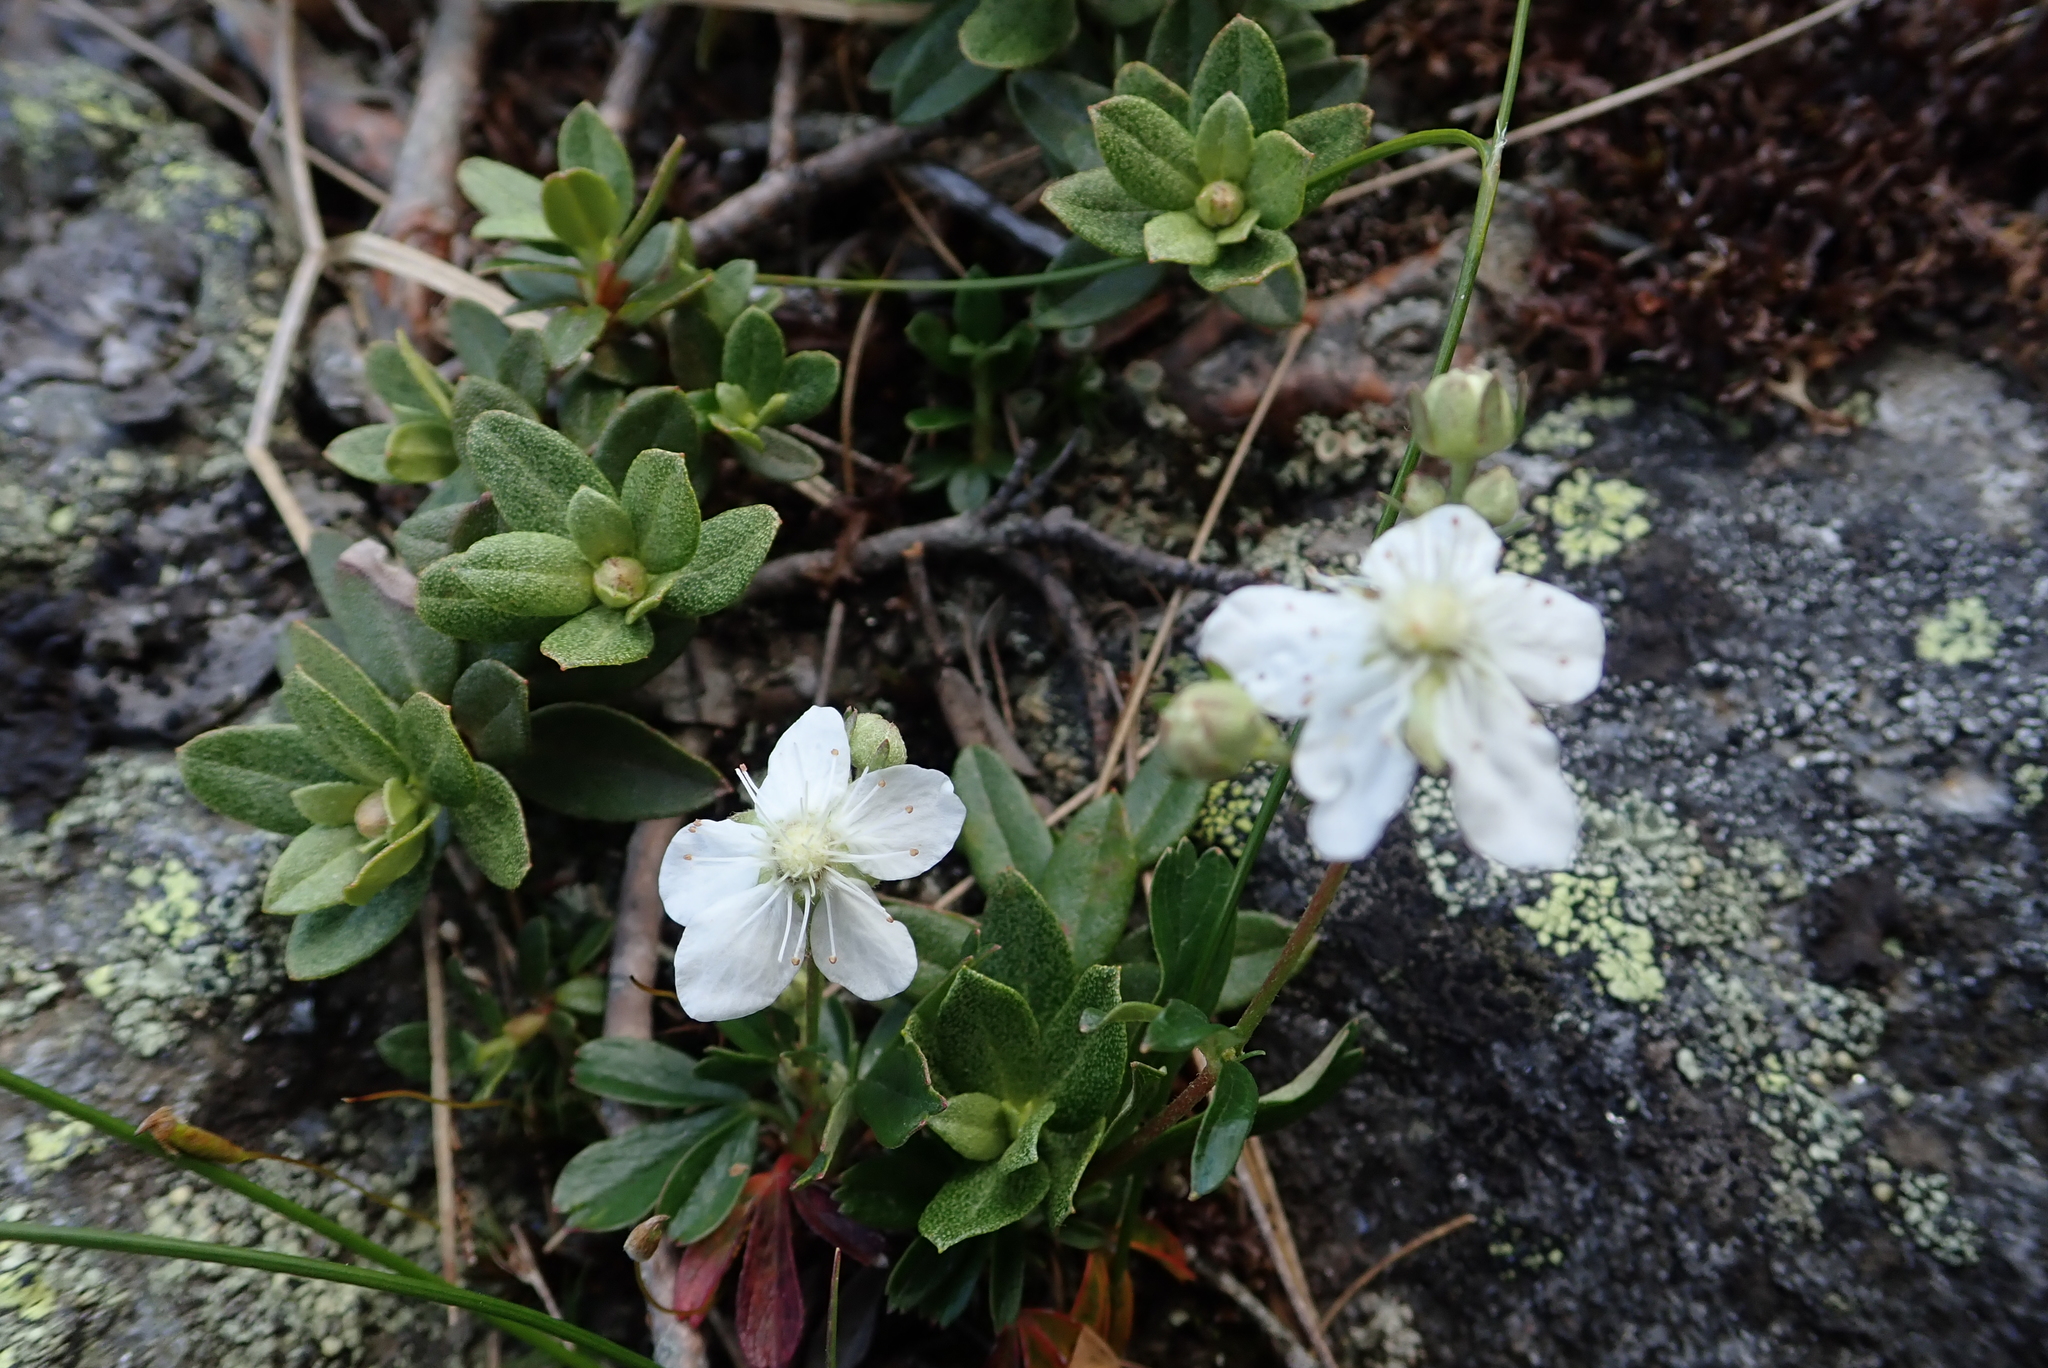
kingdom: Plantae
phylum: Tracheophyta
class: Magnoliopsida
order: Rosales
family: Rosaceae
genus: Sibbaldia
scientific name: Sibbaldia tridentata
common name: Three-toothed cinquefoil
